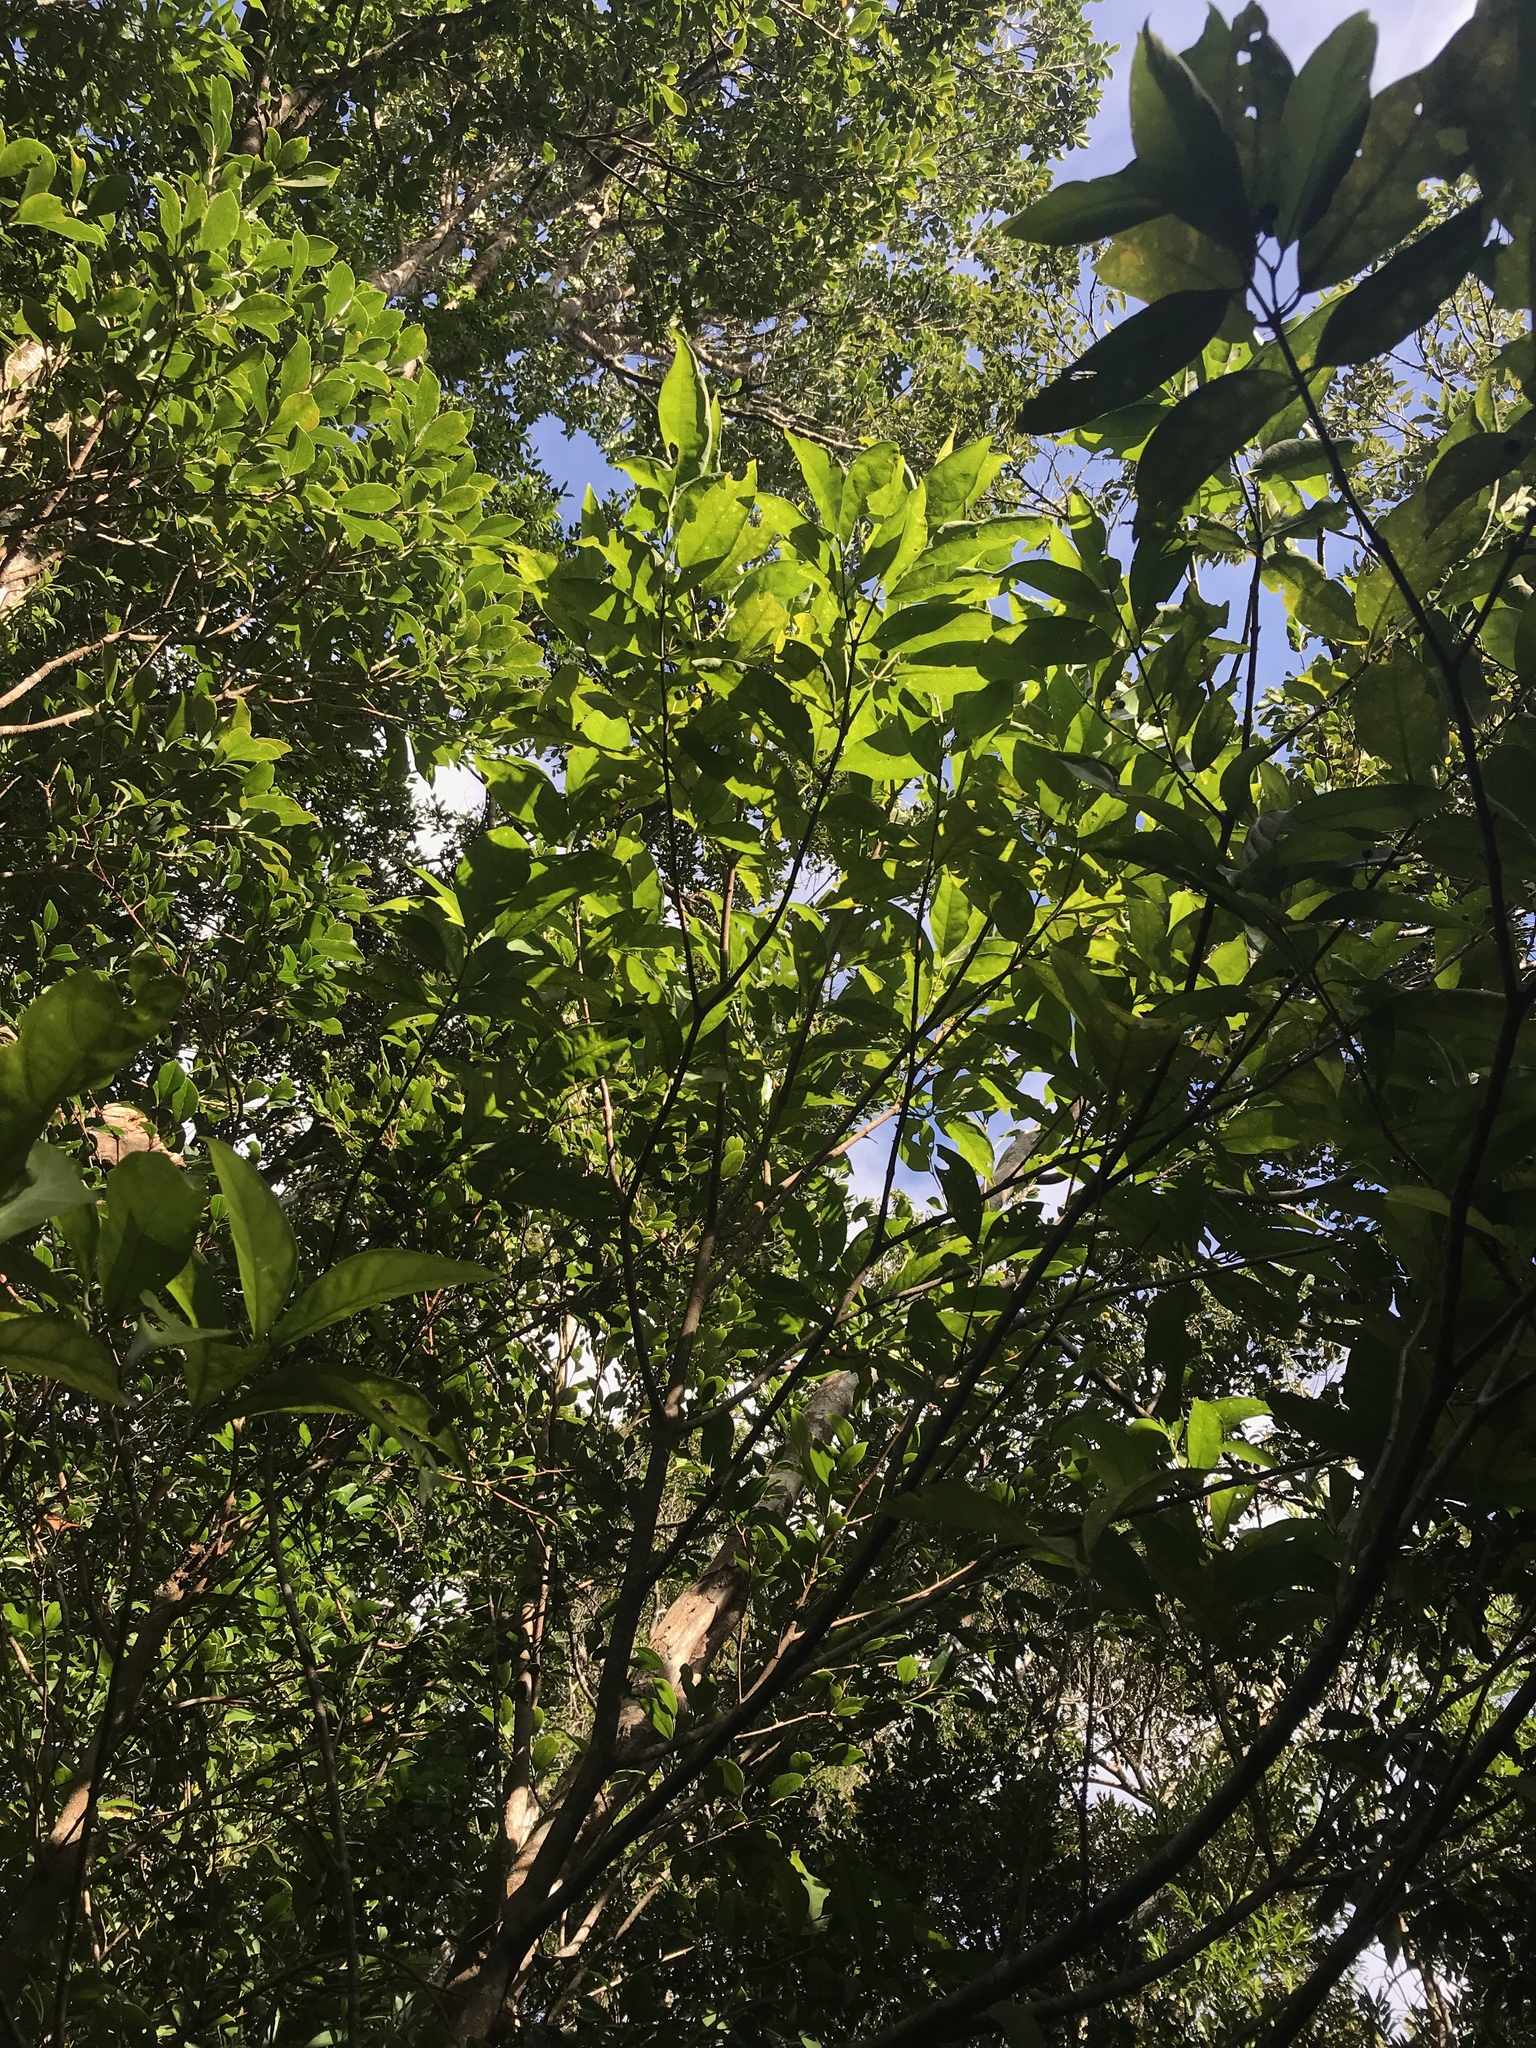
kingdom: Plantae
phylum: Tracheophyta
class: Magnoliopsida
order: Gentianales
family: Rubiaceae
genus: Aidia
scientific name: Aidia canthioides
